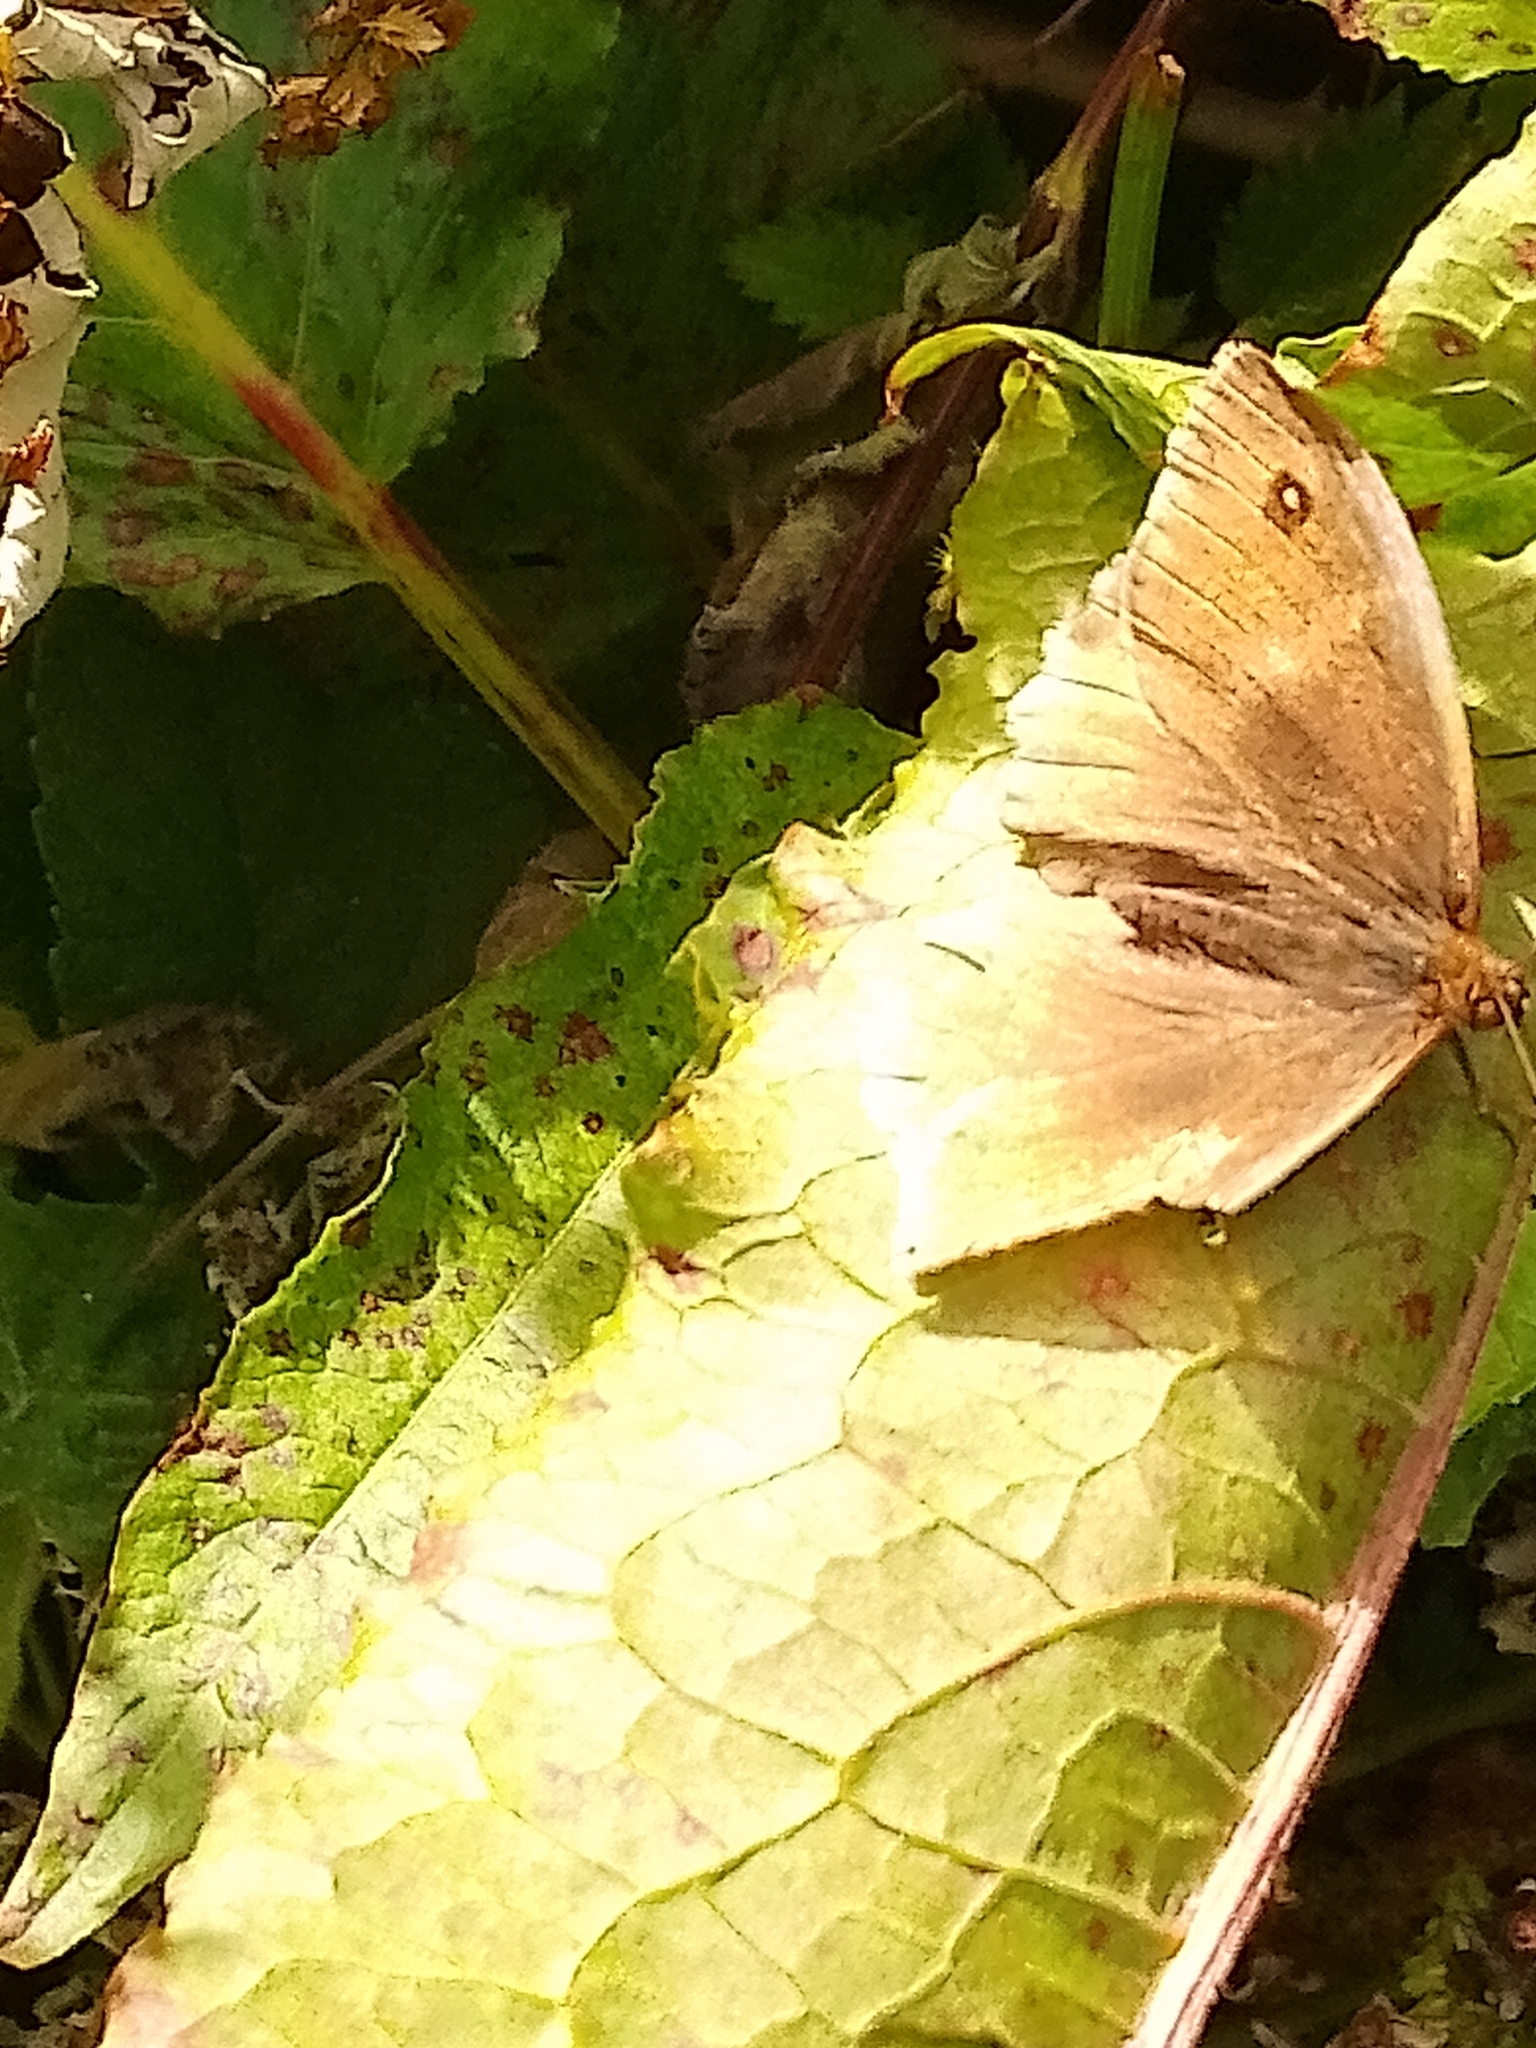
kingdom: Animalia
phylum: Arthropoda
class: Insecta
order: Lepidoptera
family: Nymphalidae
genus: Maniola
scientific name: Maniola jurtina
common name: Meadow brown
